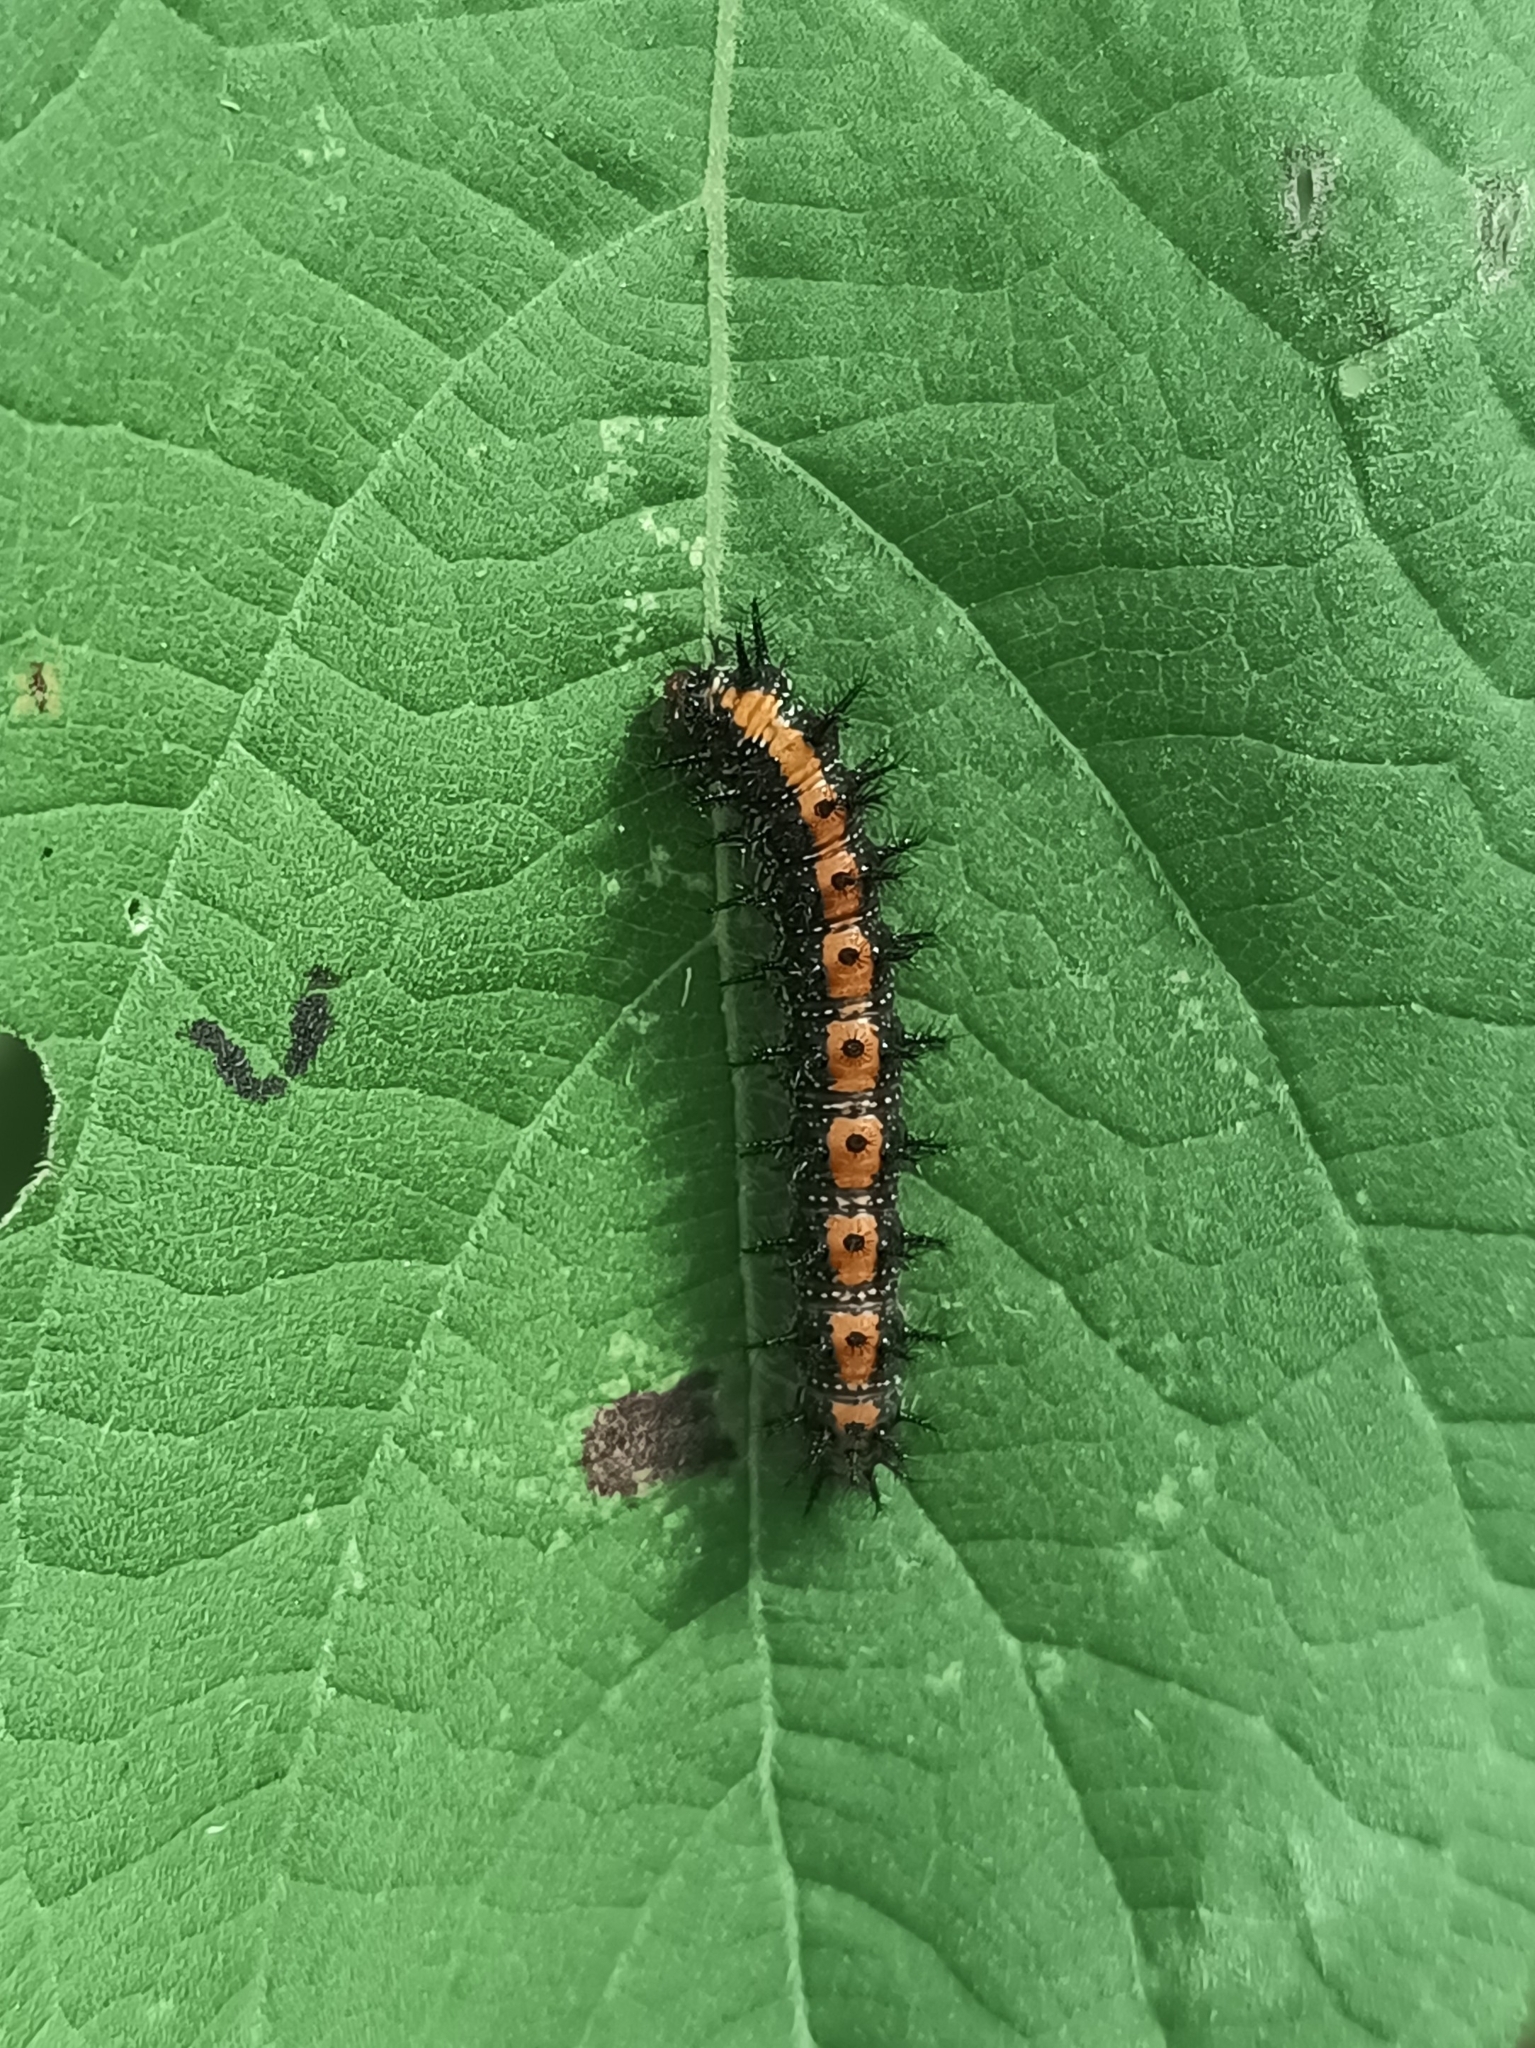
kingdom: Animalia
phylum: Arthropoda
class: Insecta
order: Lepidoptera
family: Nymphalidae
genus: Chlosyne
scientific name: Chlosyne lacinia
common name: Bordered patch
